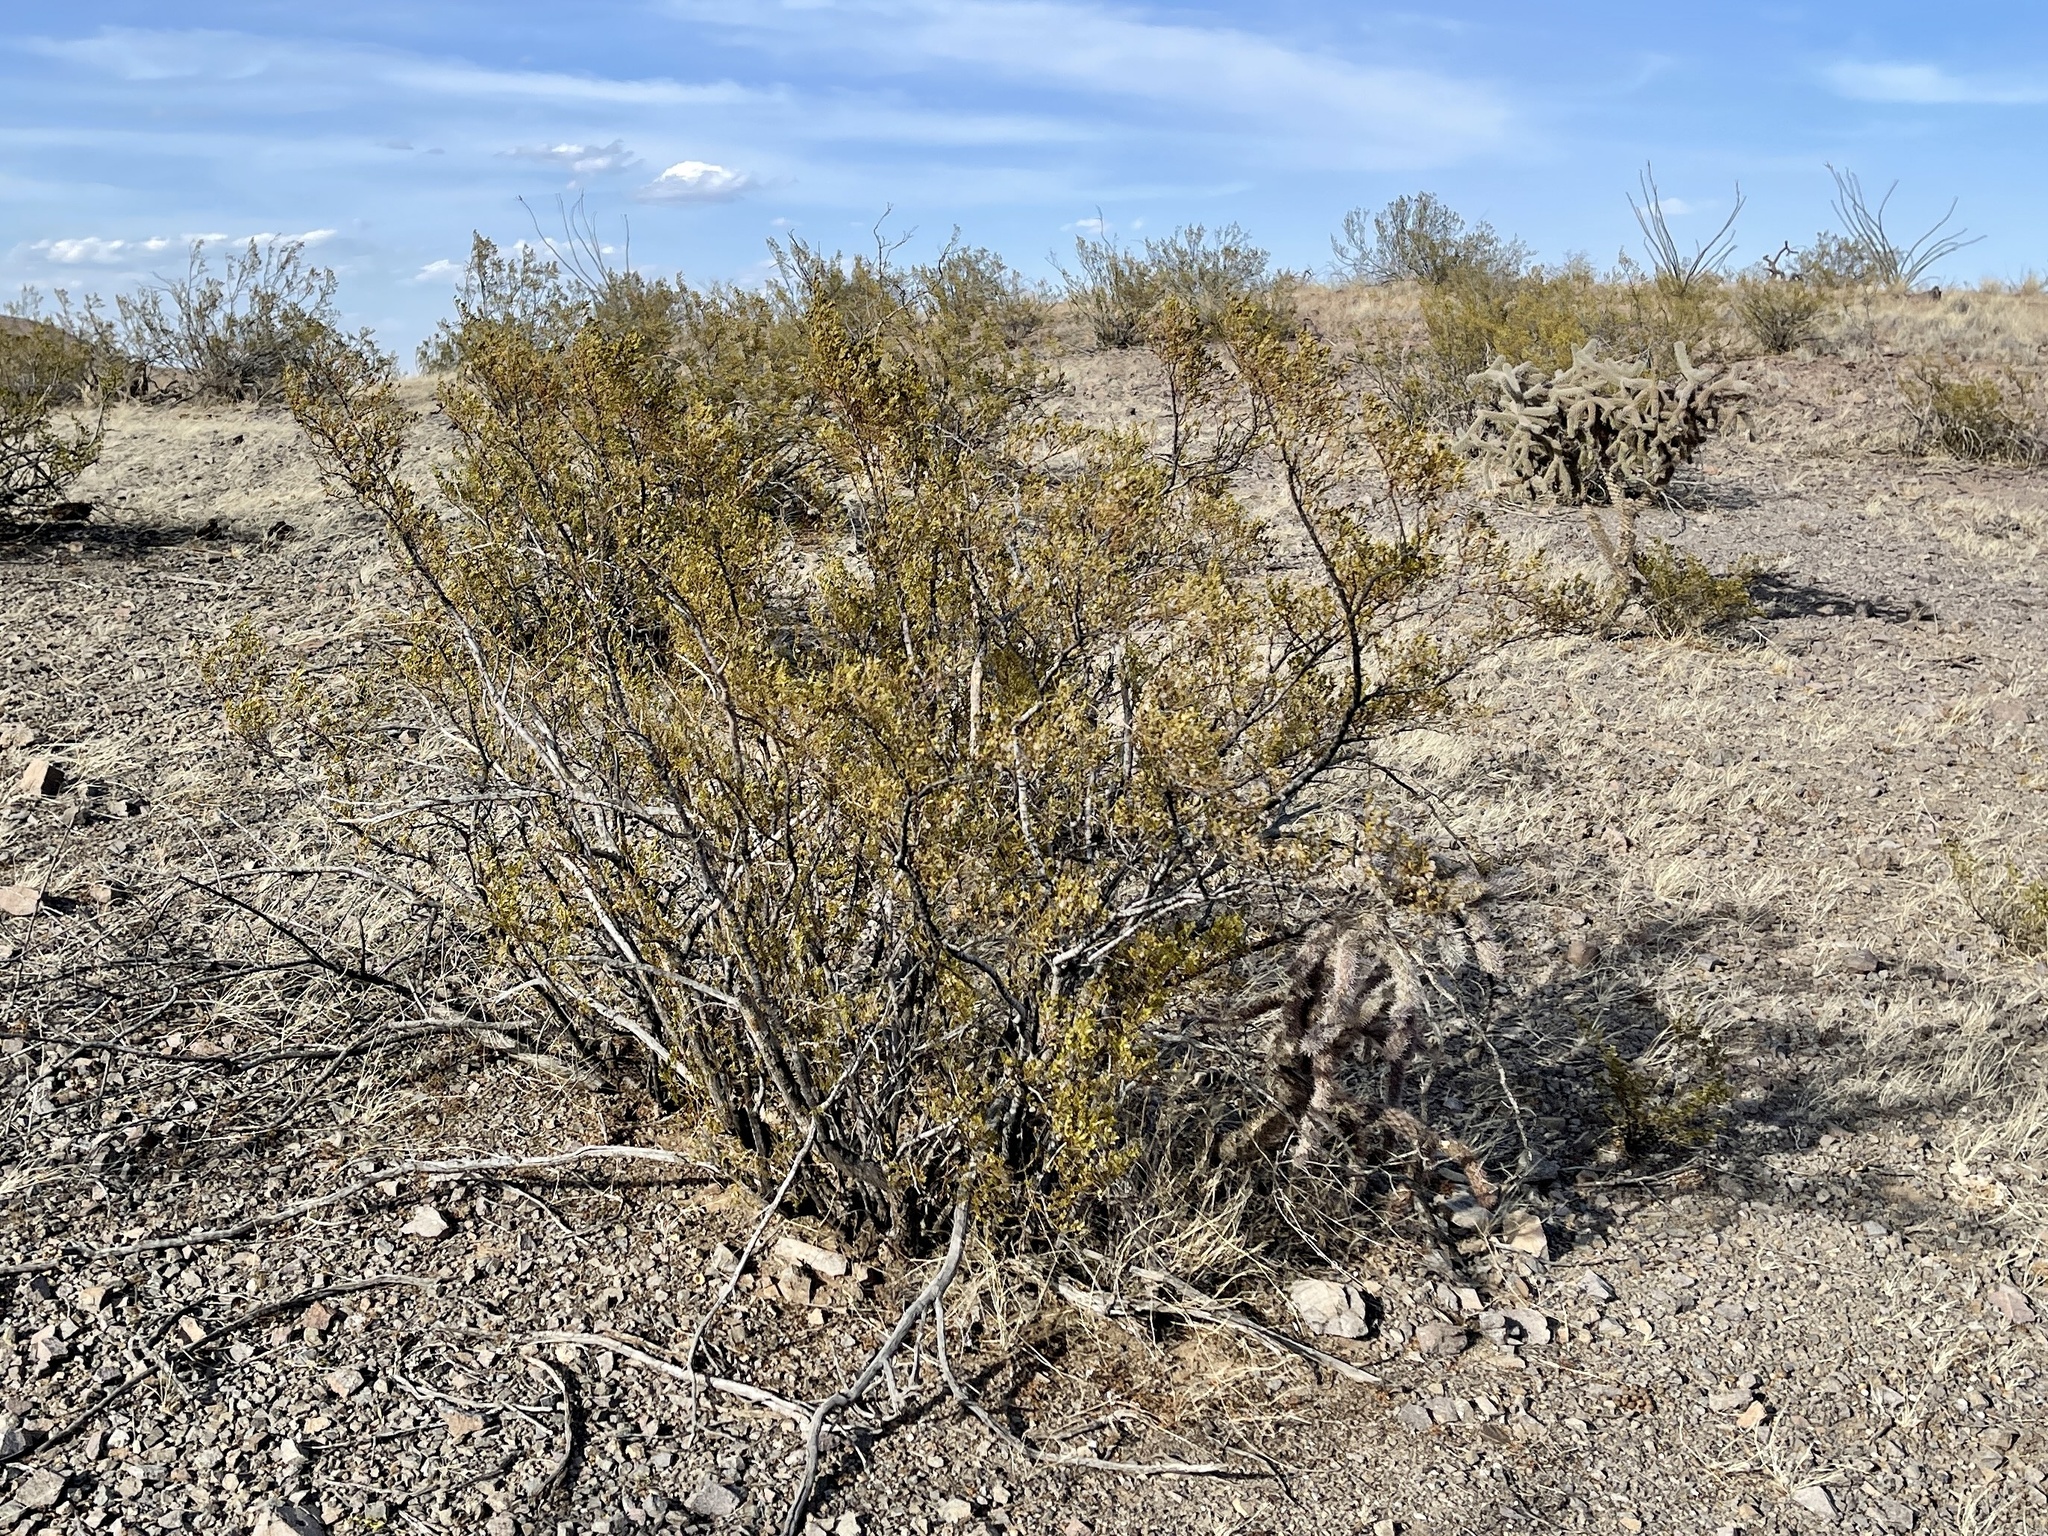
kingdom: Plantae
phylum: Tracheophyta
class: Magnoliopsida
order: Zygophyllales
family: Zygophyllaceae
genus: Larrea
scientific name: Larrea tridentata
